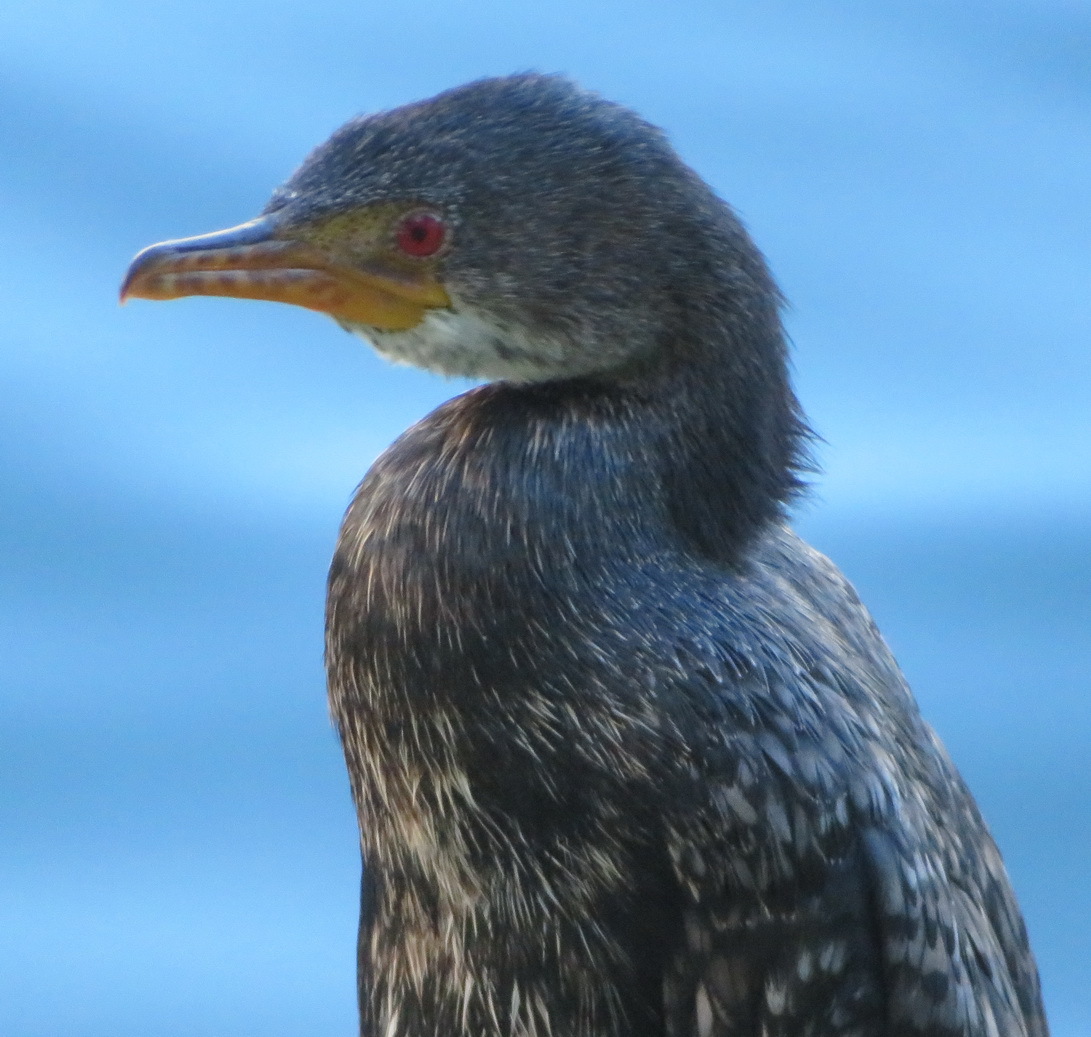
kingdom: Animalia
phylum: Chordata
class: Aves
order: Suliformes
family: Phalacrocoracidae
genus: Microcarbo
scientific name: Microcarbo coronatus
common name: Crowned cormorant
